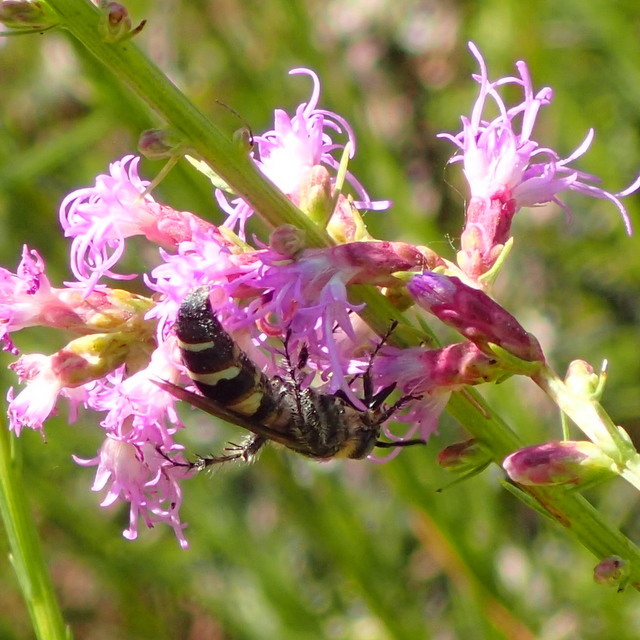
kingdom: Animalia
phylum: Arthropoda
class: Insecta
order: Hymenoptera
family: Scoliidae
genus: Dielis
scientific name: Dielis
